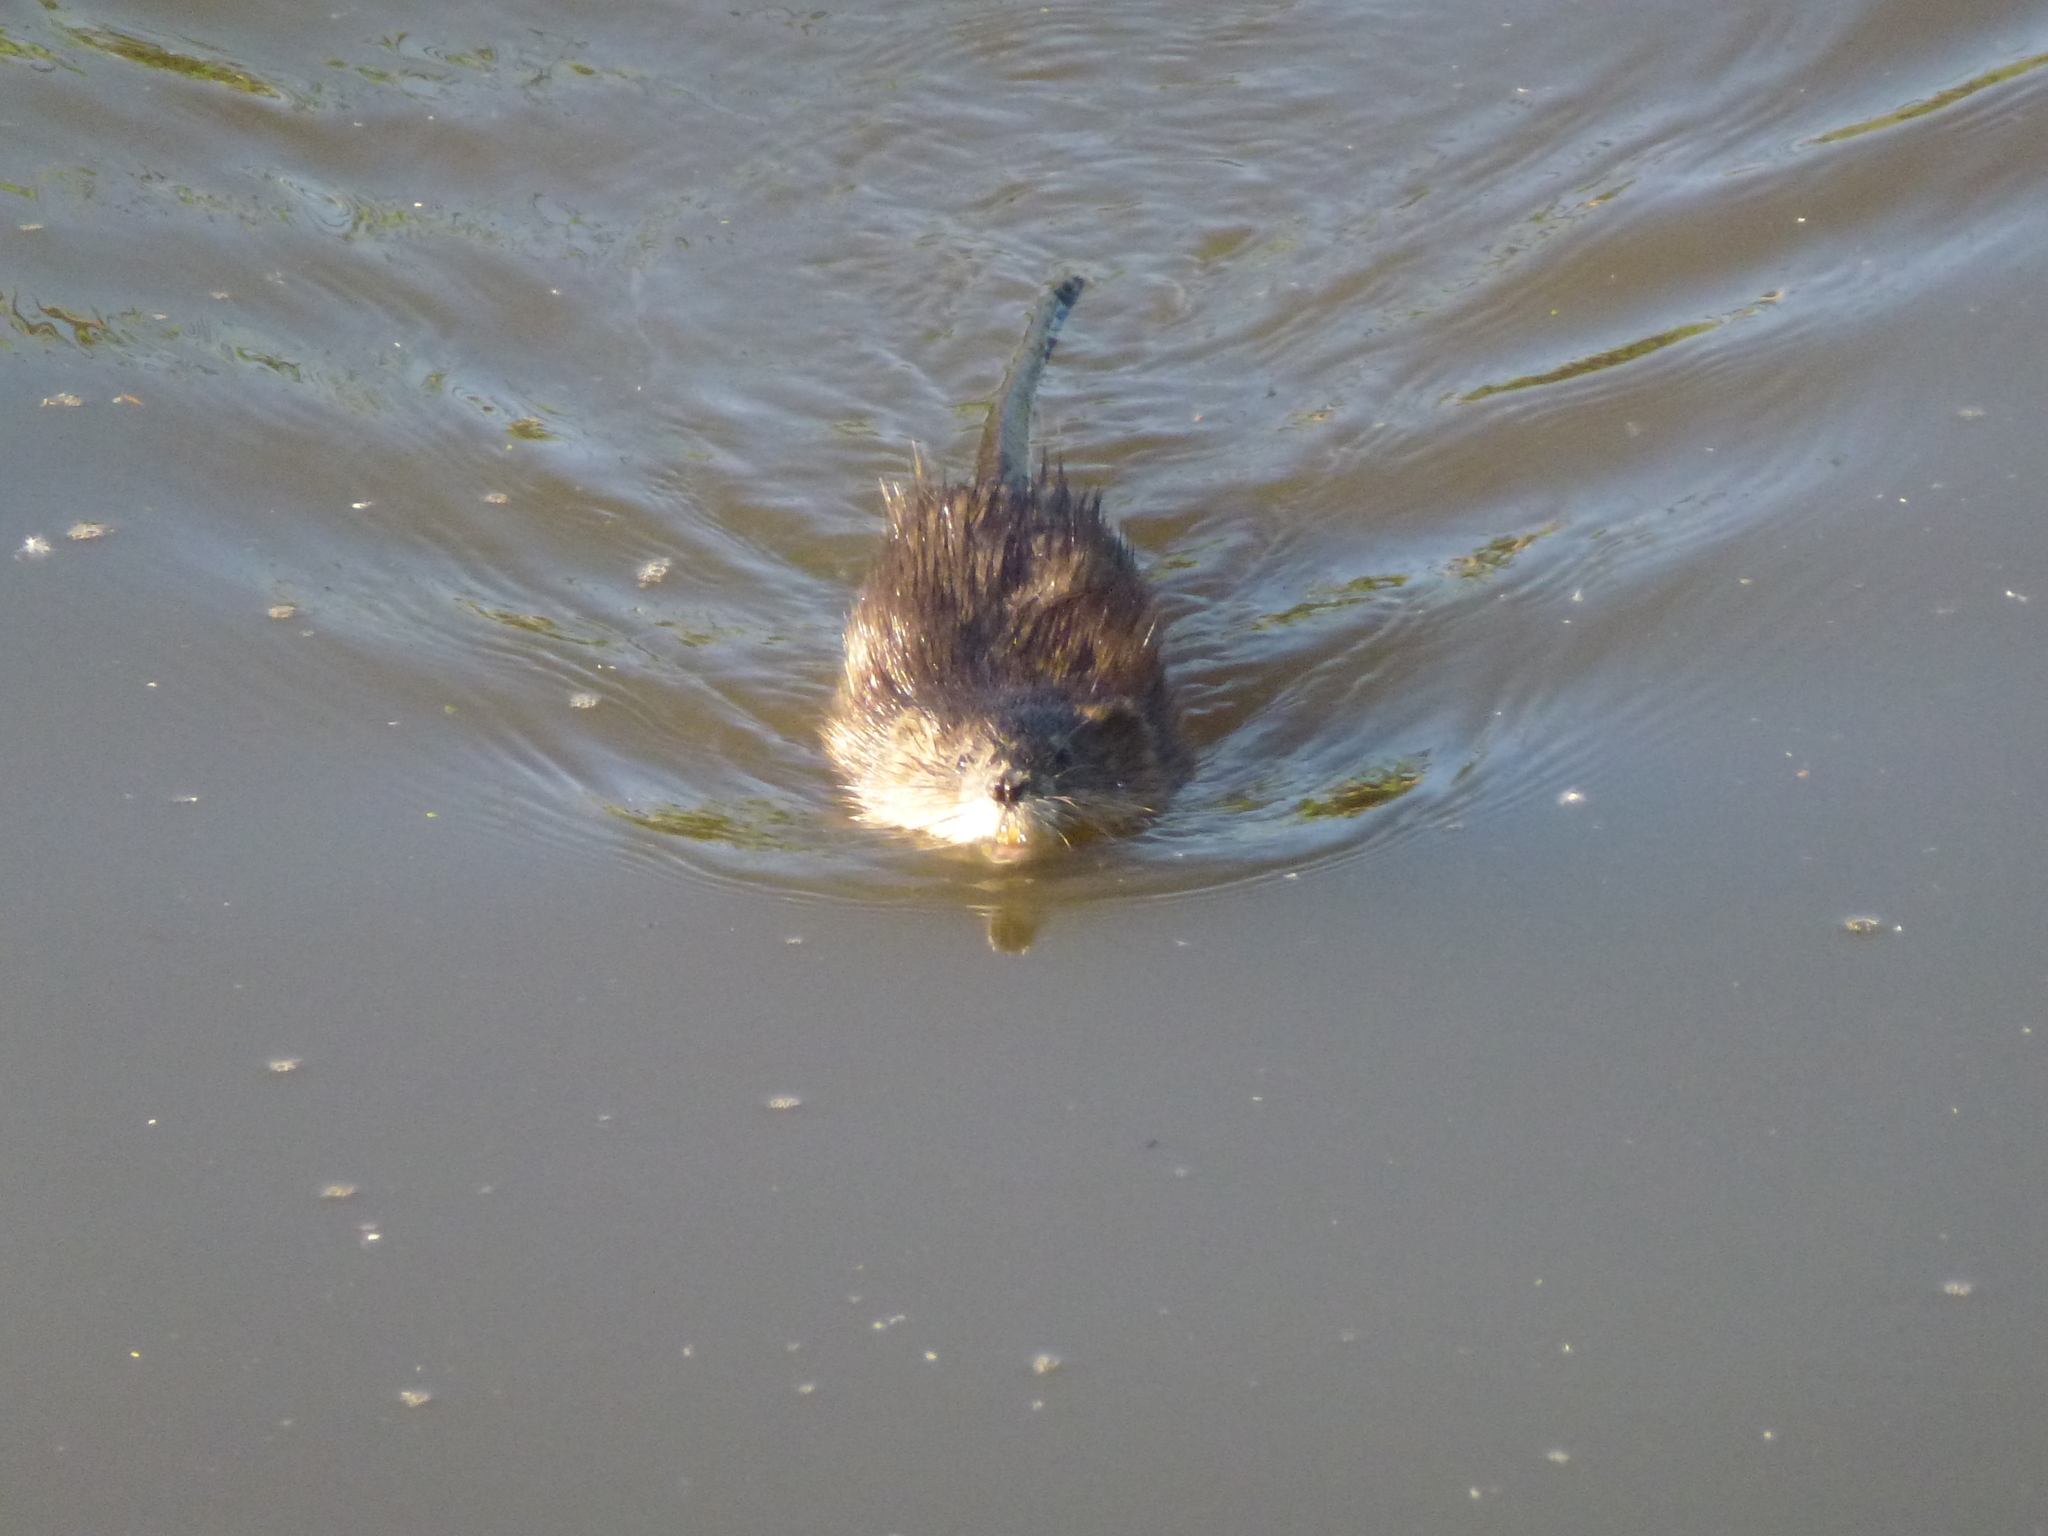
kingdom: Animalia
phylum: Chordata
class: Mammalia
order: Rodentia
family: Cricetidae
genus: Ondatra
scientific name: Ondatra zibethicus
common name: Muskrat
